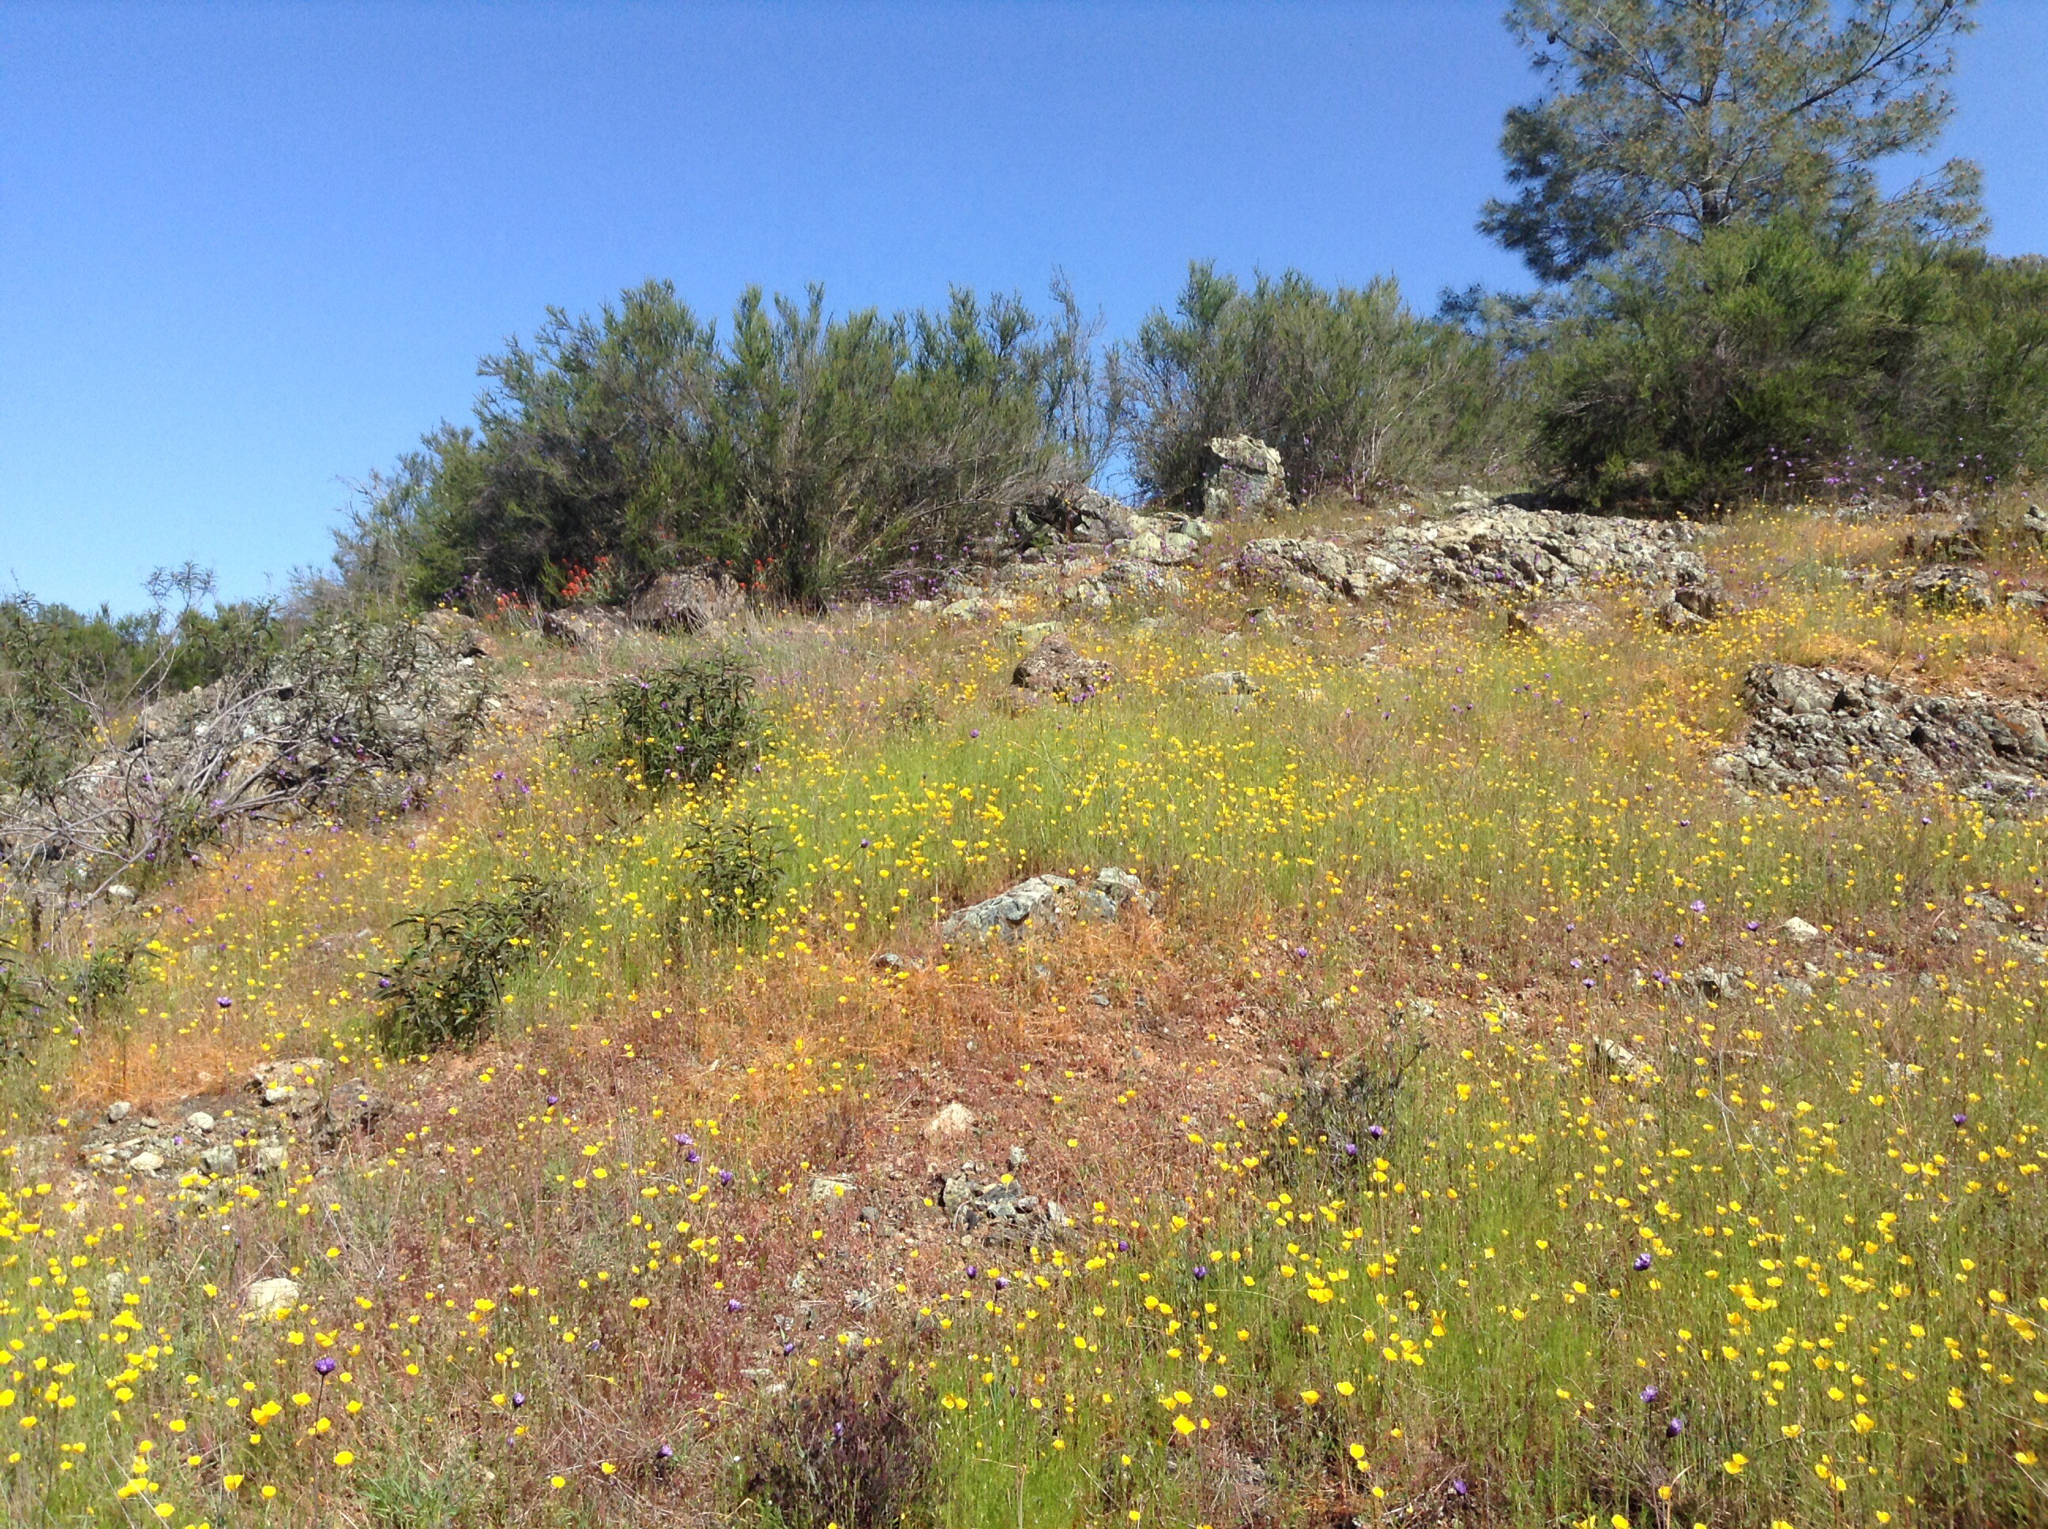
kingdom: Plantae
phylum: Tracheophyta
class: Liliopsida
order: Asparagales
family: Asparagaceae
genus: Dipterostemon
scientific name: Dipterostemon capitatus
